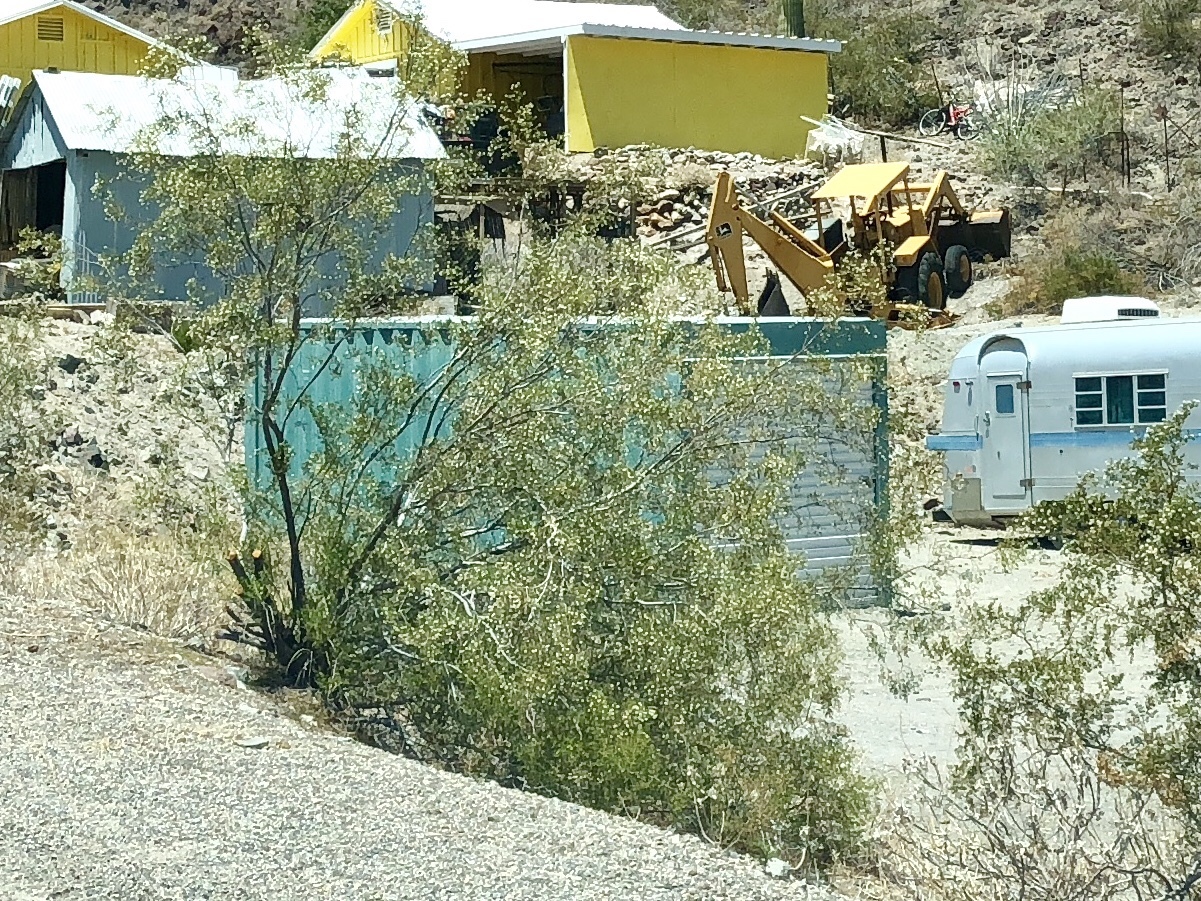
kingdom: Plantae
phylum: Tracheophyta
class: Magnoliopsida
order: Zygophyllales
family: Zygophyllaceae
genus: Larrea
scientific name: Larrea tridentata
